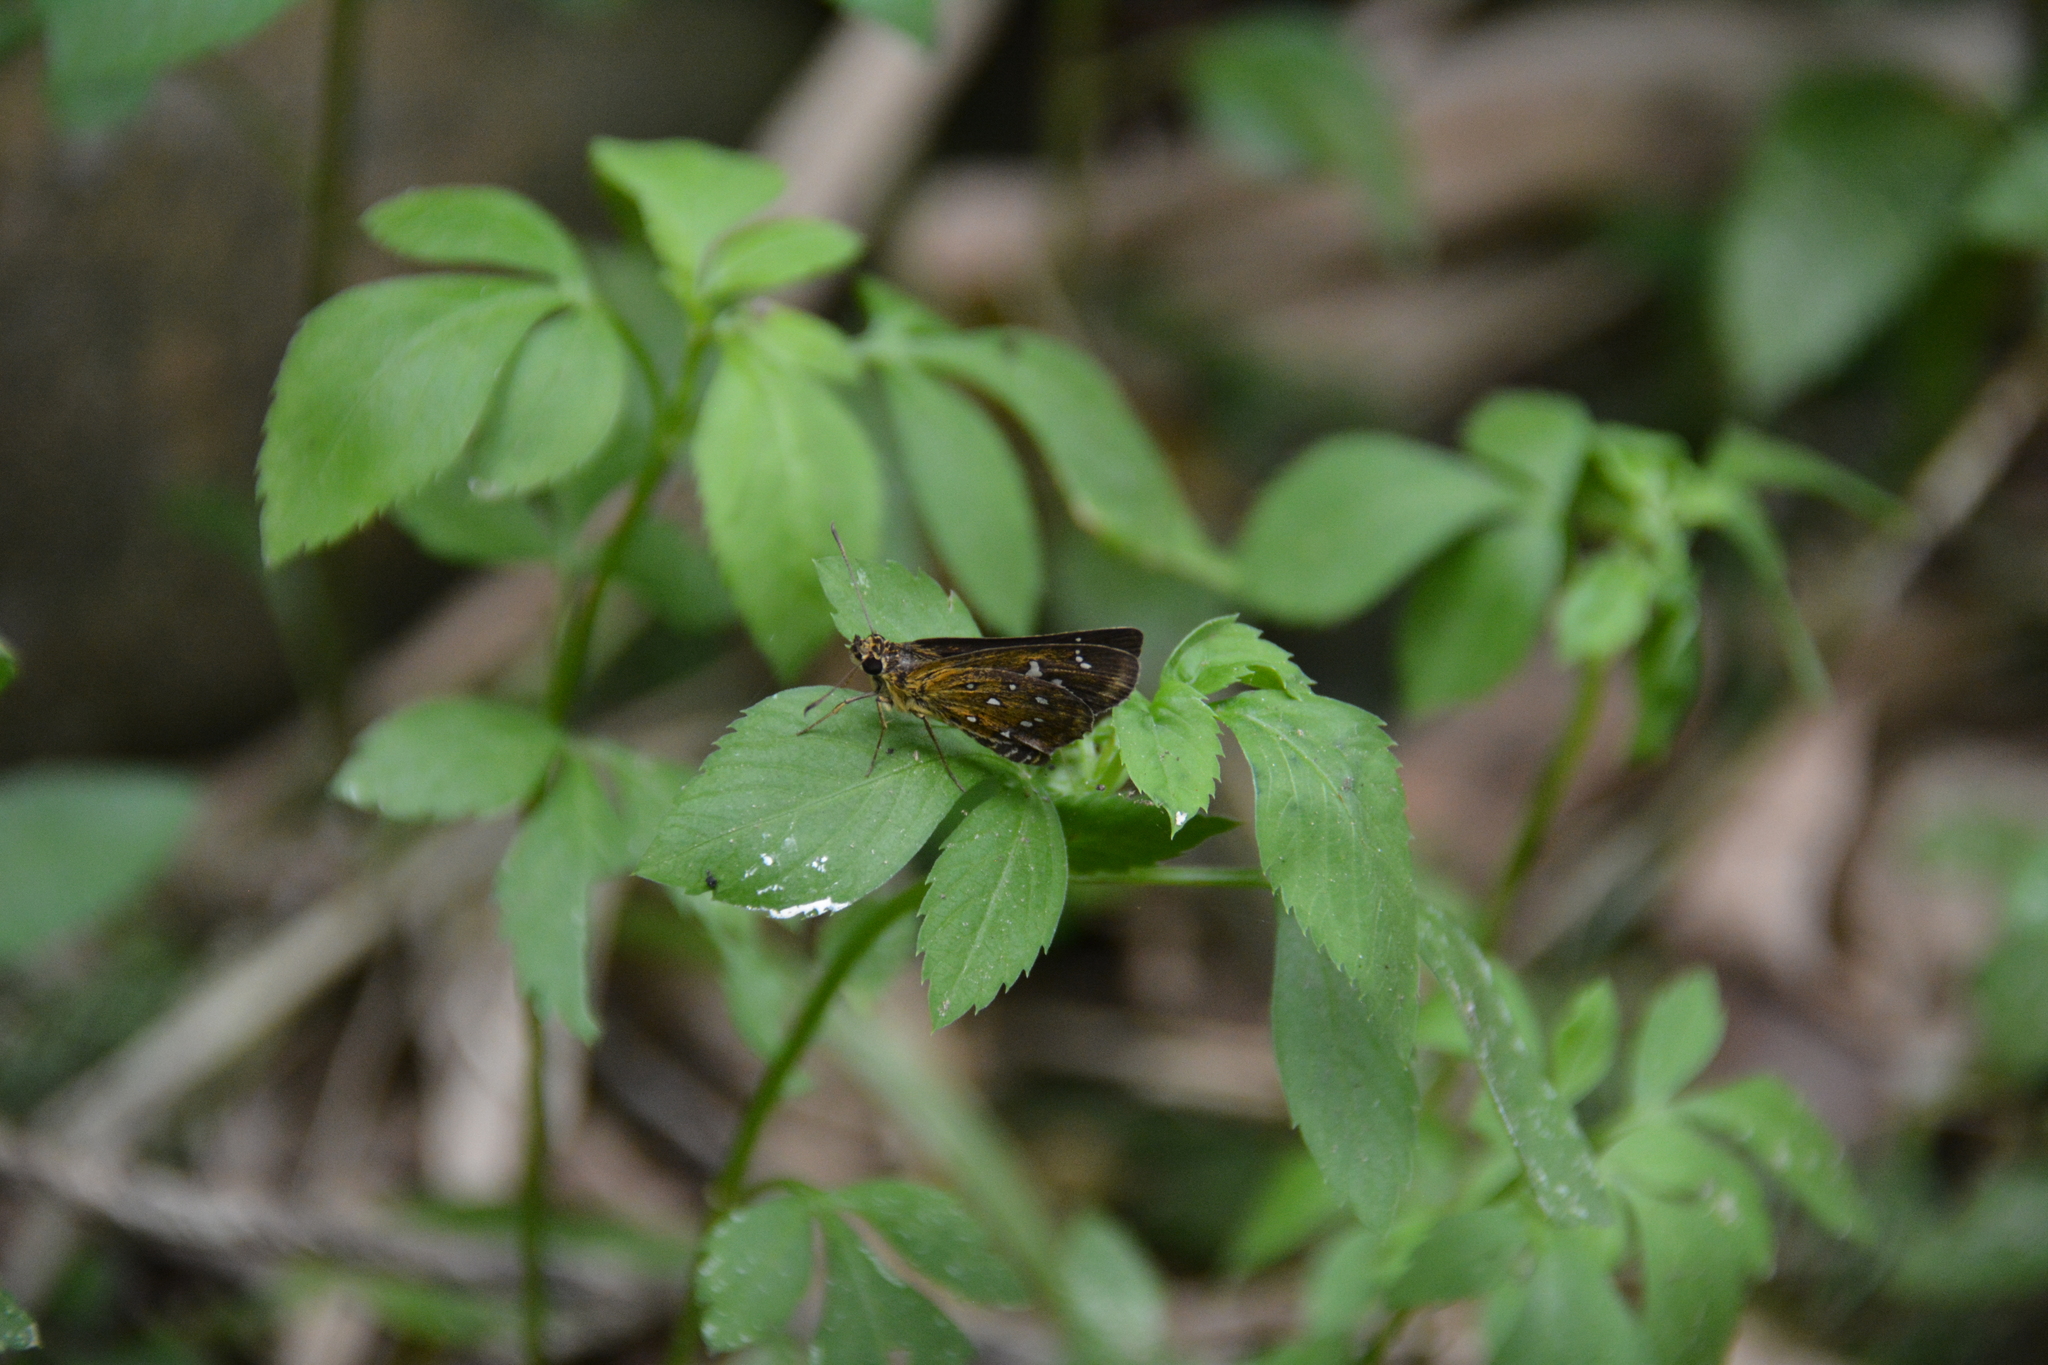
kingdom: Animalia
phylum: Arthropoda
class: Insecta
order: Lepidoptera
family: Hesperiidae
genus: Isoteinon
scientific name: Isoteinon lamprospilus
